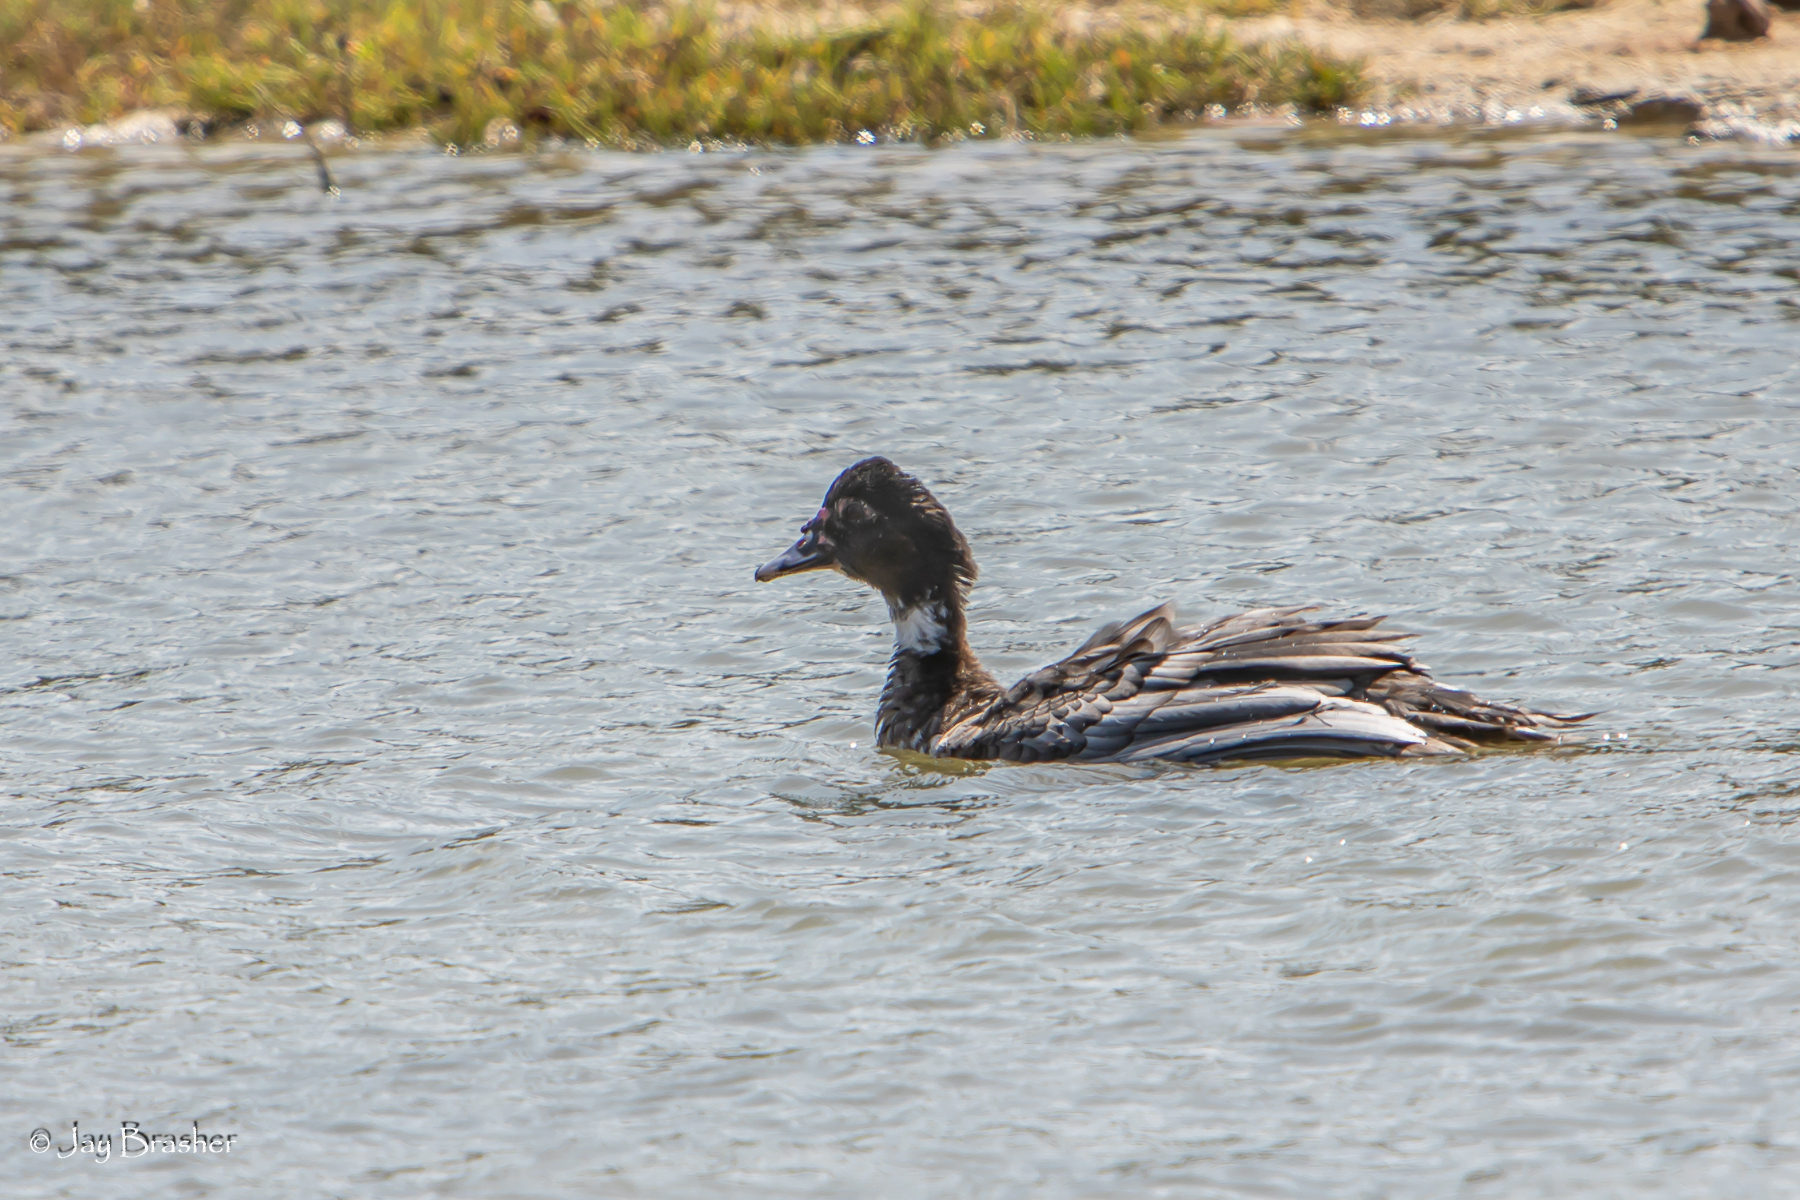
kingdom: Animalia
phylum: Chordata
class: Aves
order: Anseriformes
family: Anatidae
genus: Cairina
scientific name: Cairina moschata
